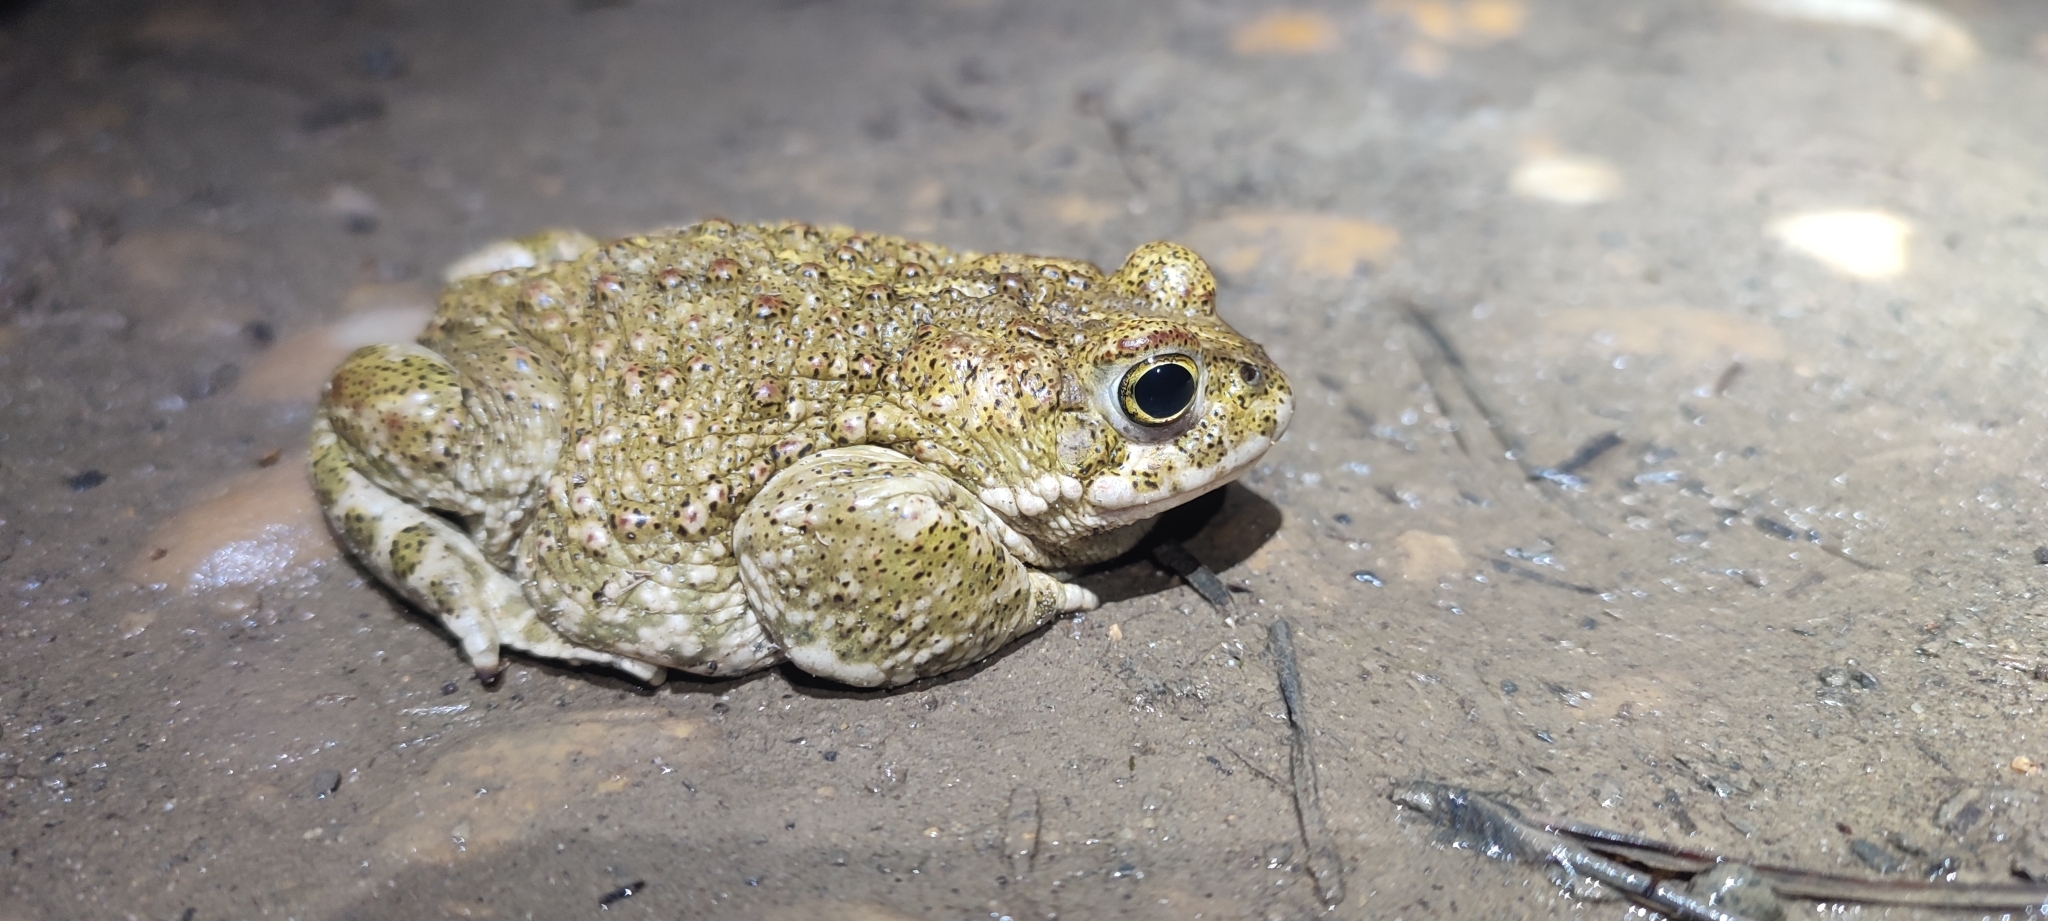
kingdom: Animalia
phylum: Chordata
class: Amphibia
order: Anura
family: Bufonidae
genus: Epidalea
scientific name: Epidalea calamita
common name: Natterjack toad
